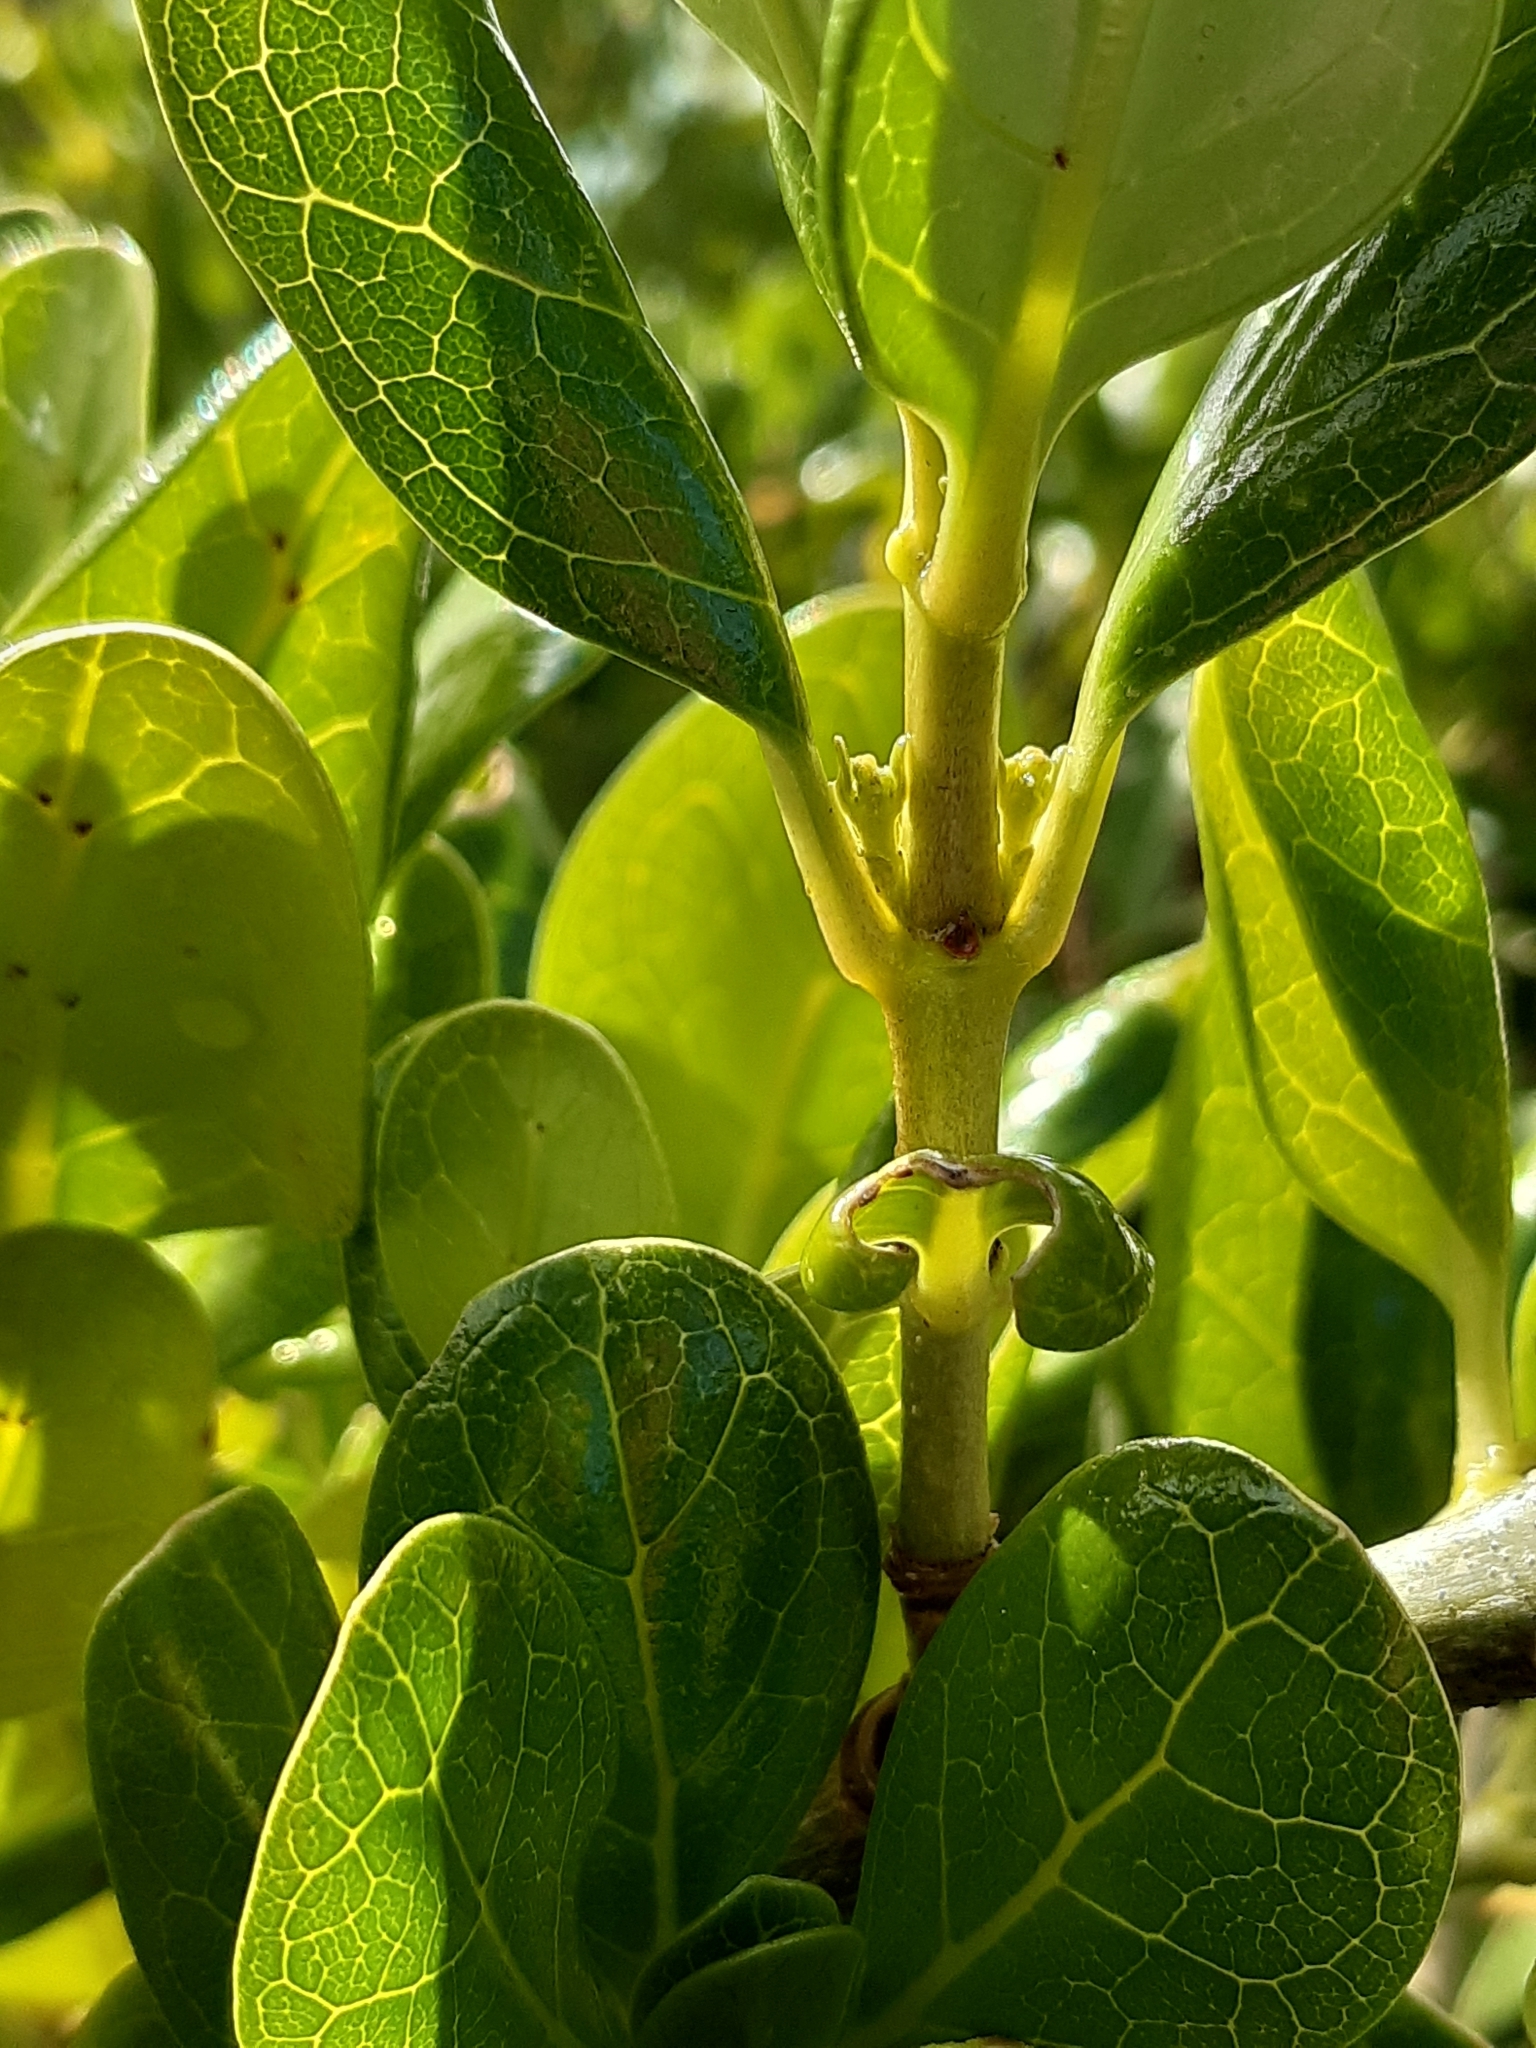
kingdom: Plantae
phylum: Tracheophyta
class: Magnoliopsida
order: Gentianales
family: Rubiaceae
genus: Coprosma
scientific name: Coprosma repens
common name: Tree bedstraw
